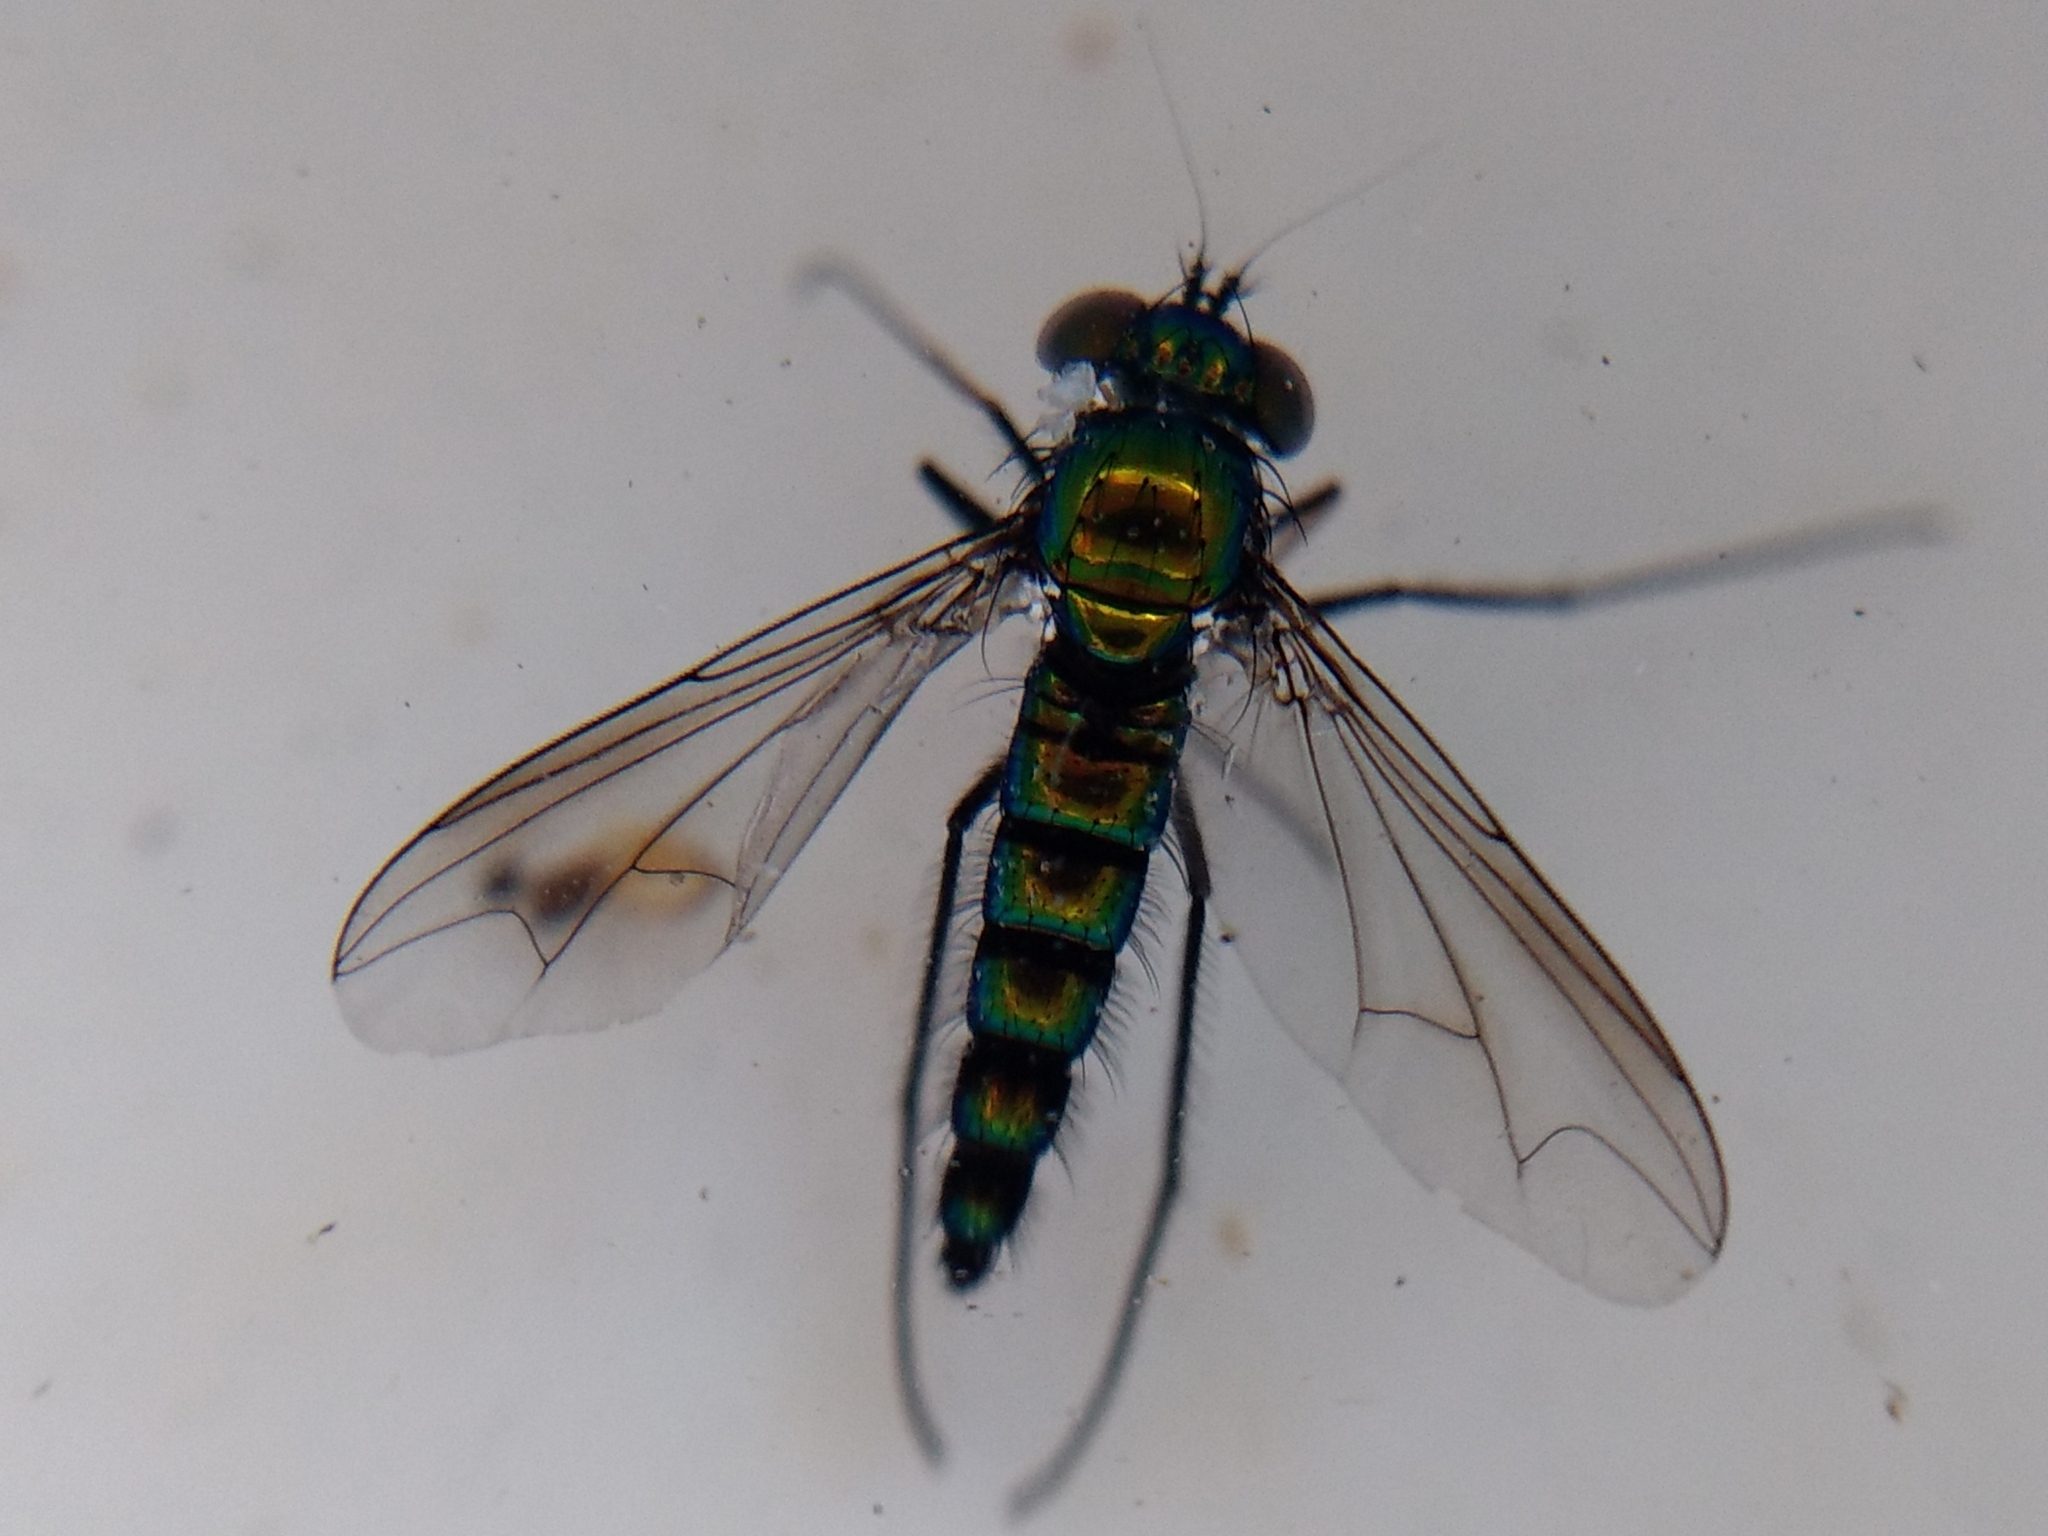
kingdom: Animalia
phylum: Arthropoda
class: Insecta
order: Diptera
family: Dolichopodidae
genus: Condylostylus
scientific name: Condylostylus longicornis
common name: Long-legged fly
